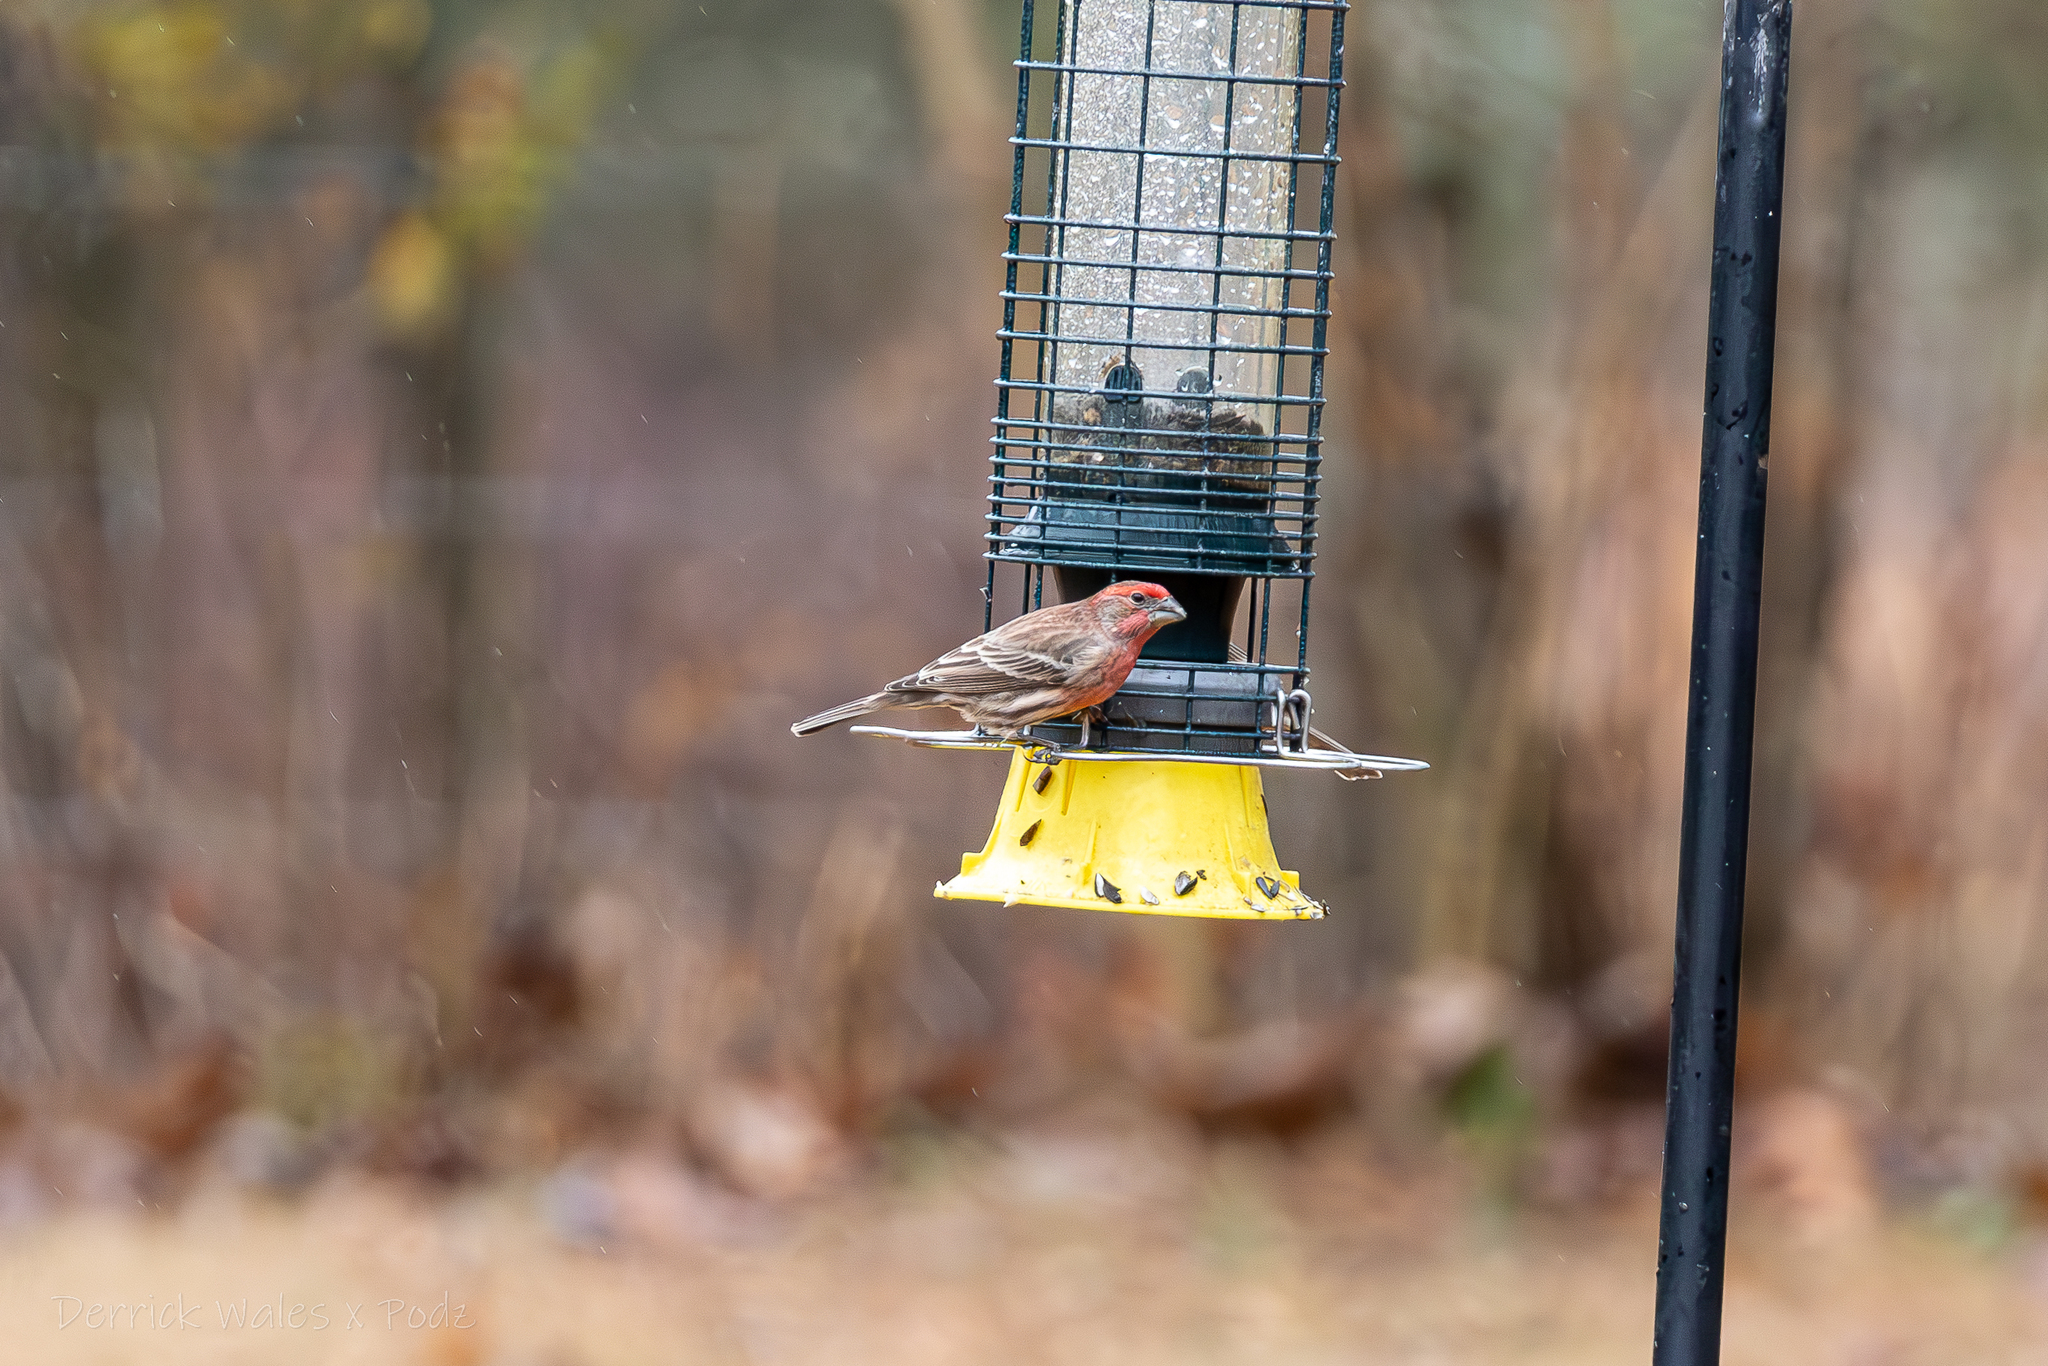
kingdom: Animalia
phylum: Chordata
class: Aves
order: Passeriformes
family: Fringillidae
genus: Haemorhous
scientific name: Haemorhous mexicanus
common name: House finch
